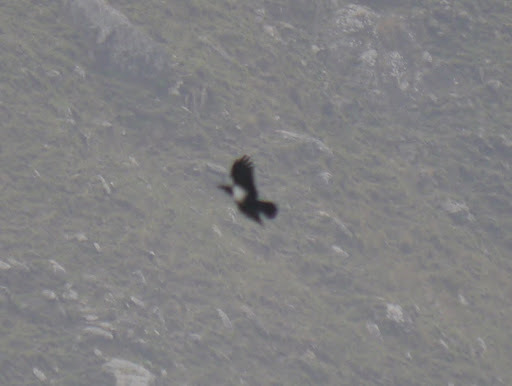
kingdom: Animalia
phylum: Chordata
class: Aves
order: Passeriformes
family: Corvidae
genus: Corvus
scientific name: Corvus albus
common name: Pied crow
